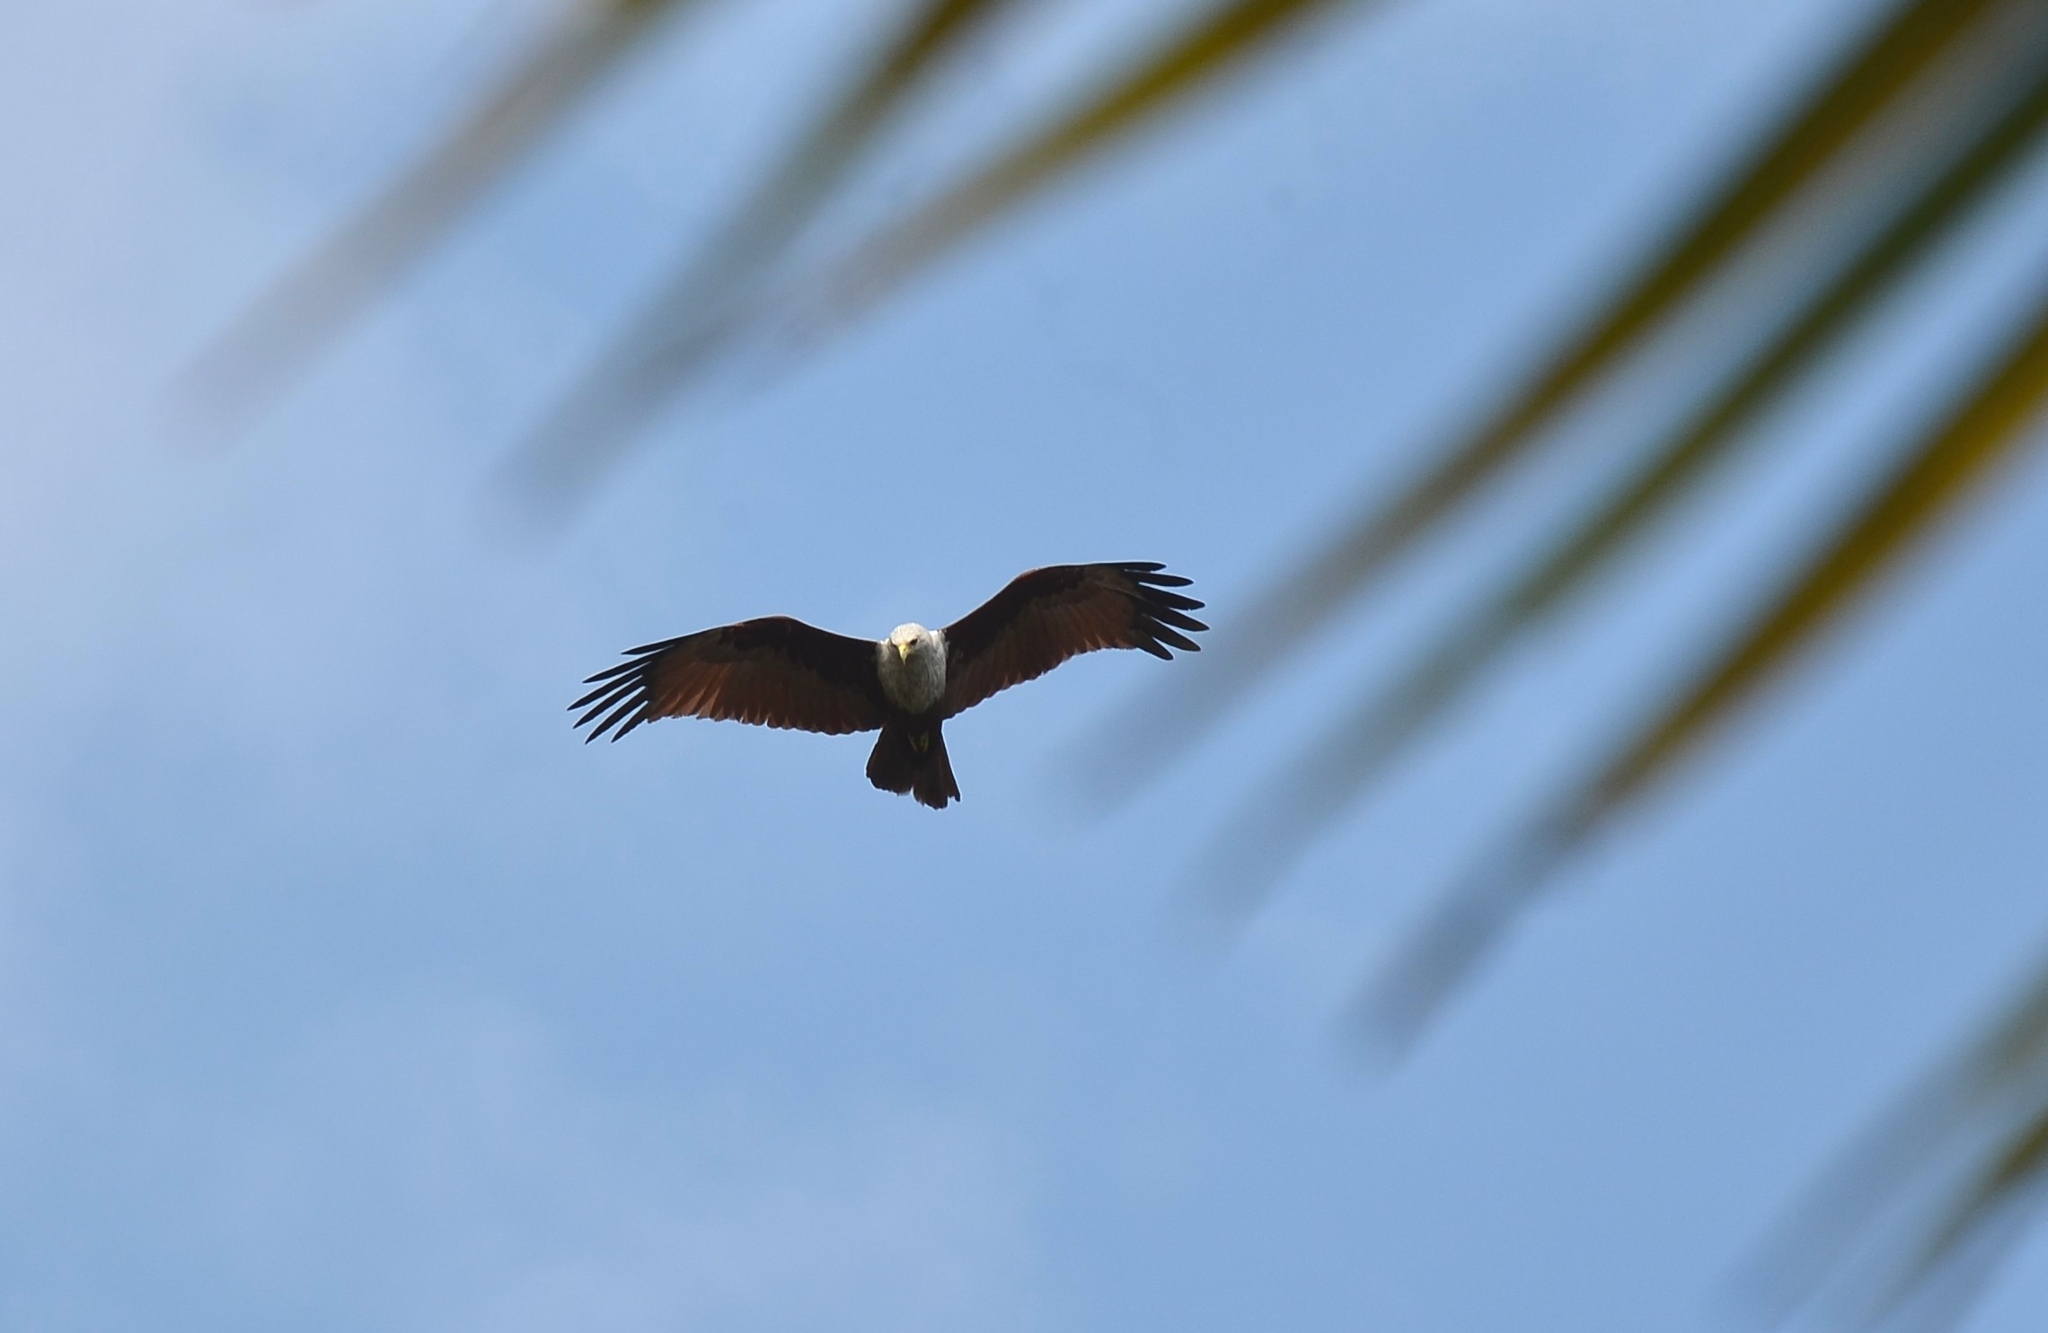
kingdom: Animalia
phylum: Chordata
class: Aves
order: Accipitriformes
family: Accipitridae
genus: Haliastur
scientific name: Haliastur indus
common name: Brahminy kite
